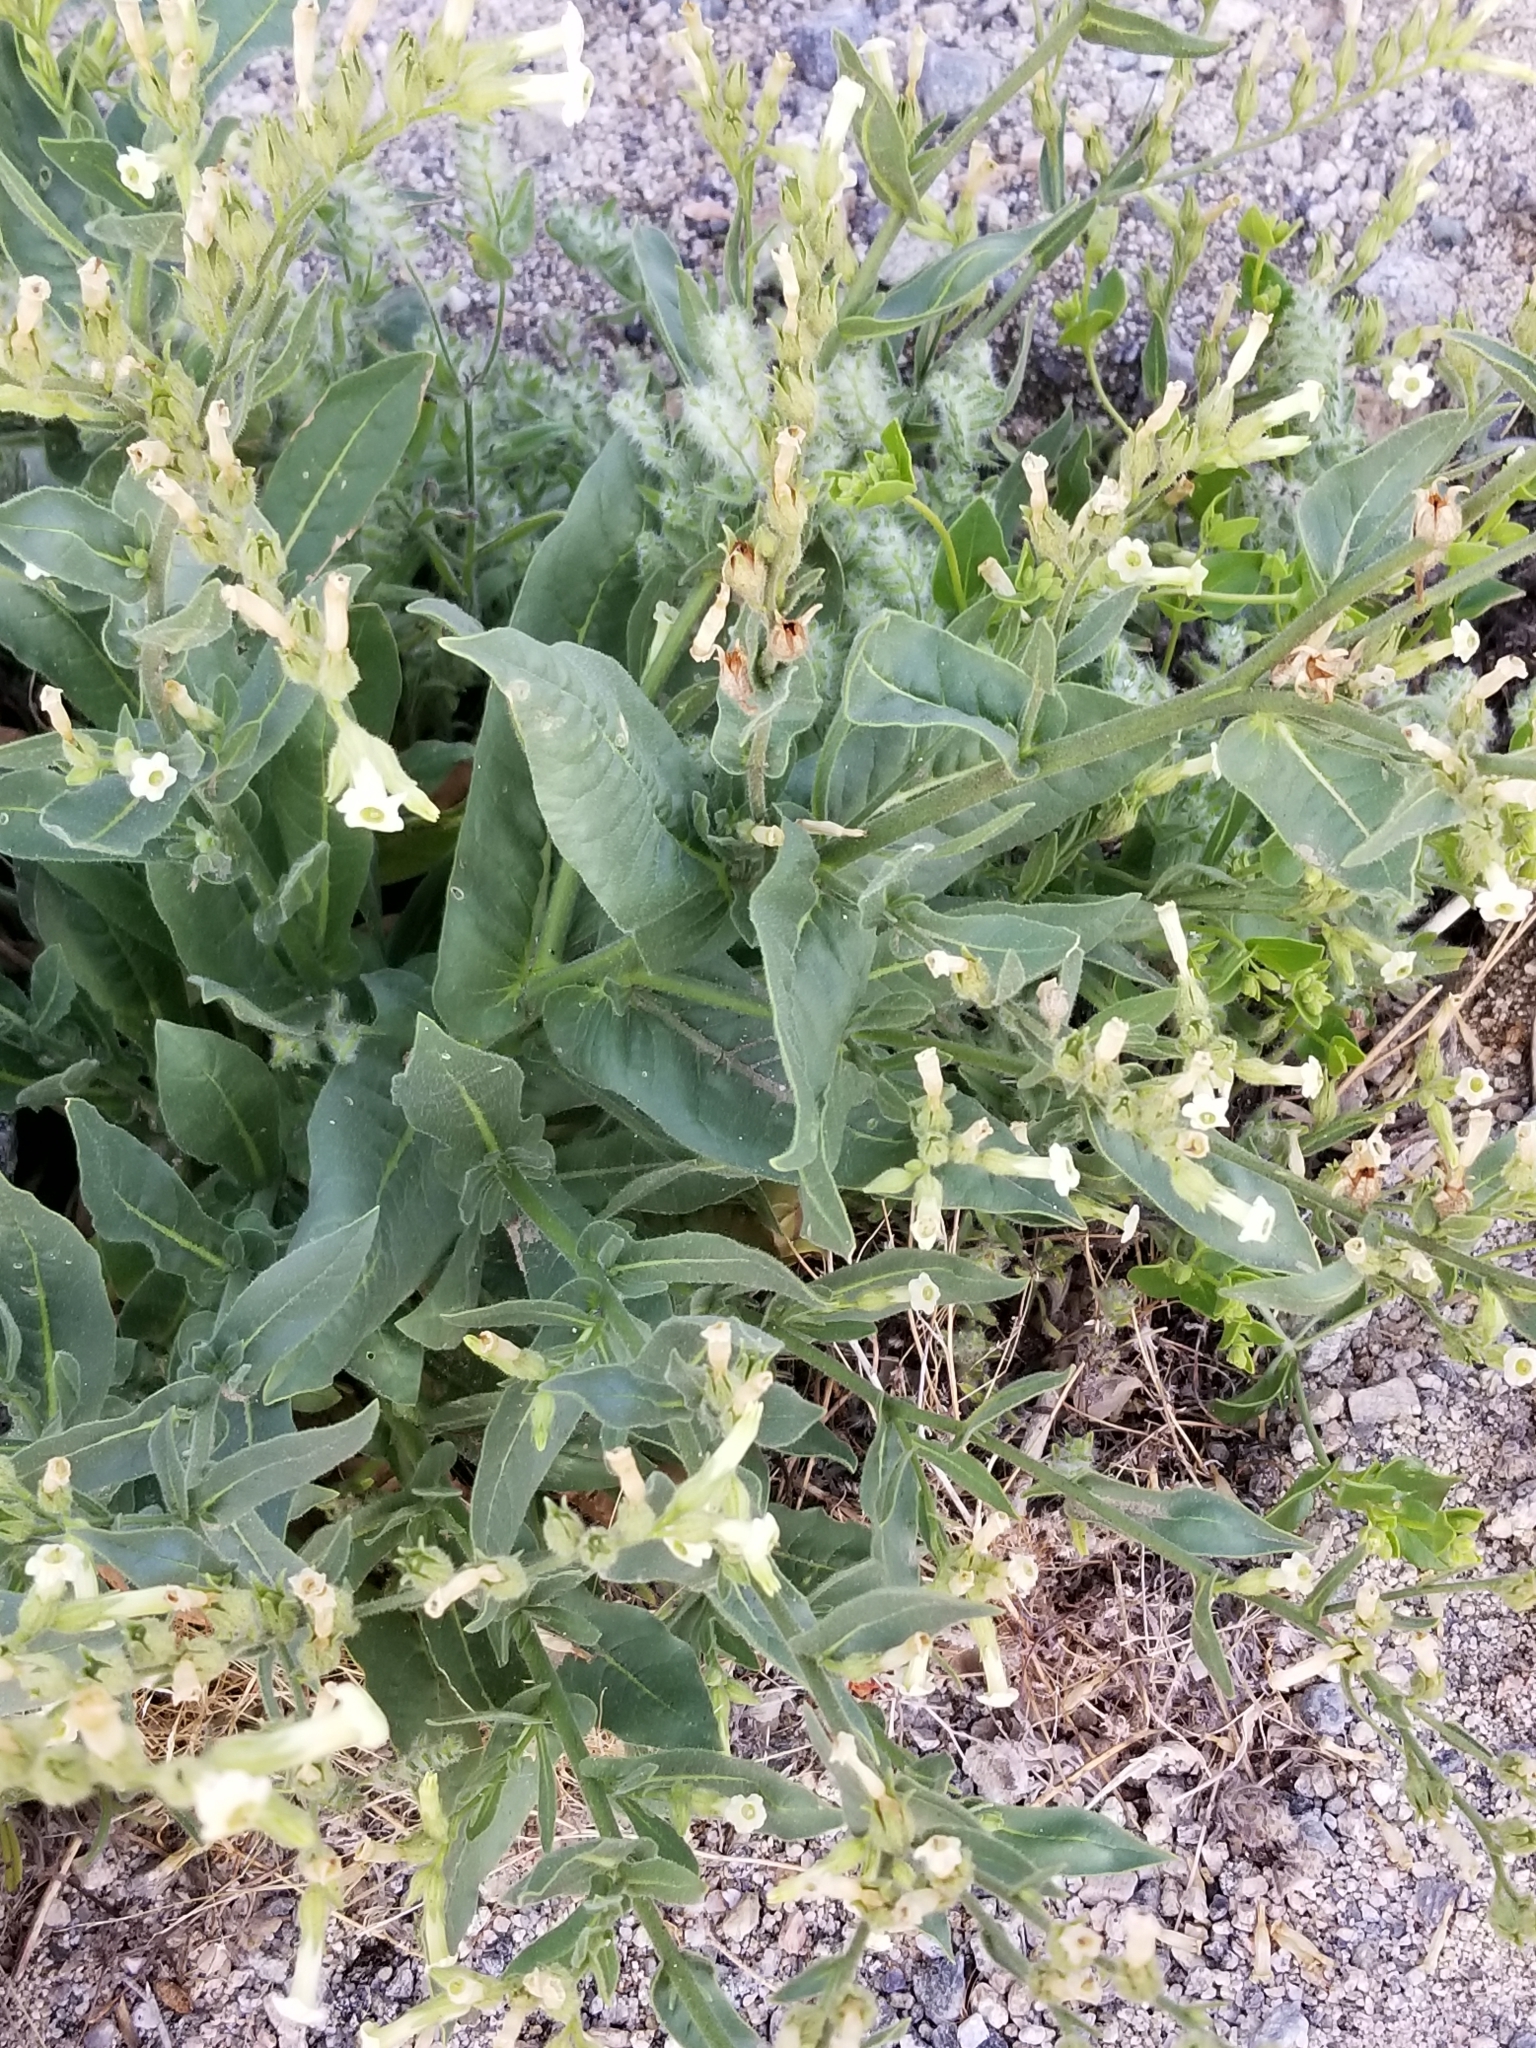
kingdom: Plantae
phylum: Tracheophyta
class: Magnoliopsida
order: Solanales
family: Solanaceae
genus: Nicotiana
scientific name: Nicotiana obtusifolia
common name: Desert tobacco
